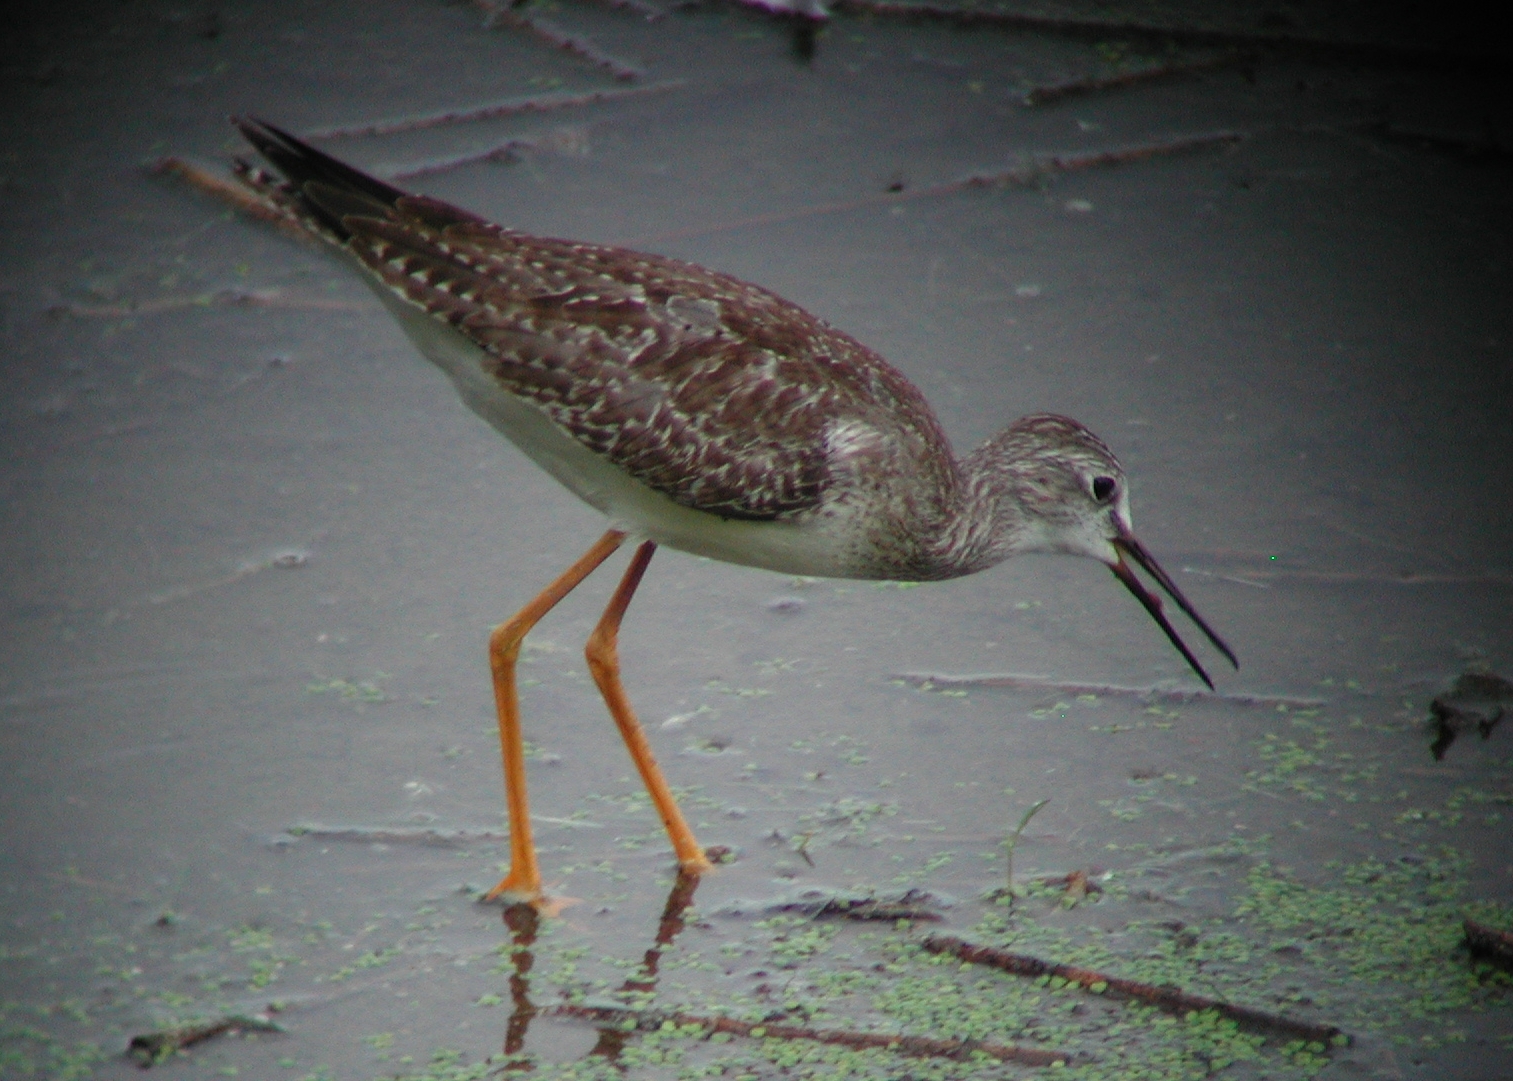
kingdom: Animalia
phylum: Chordata
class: Aves
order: Charadriiformes
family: Scolopacidae
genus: Tringa
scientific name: Tringa melanoleuca
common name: Greater yellowlegs
